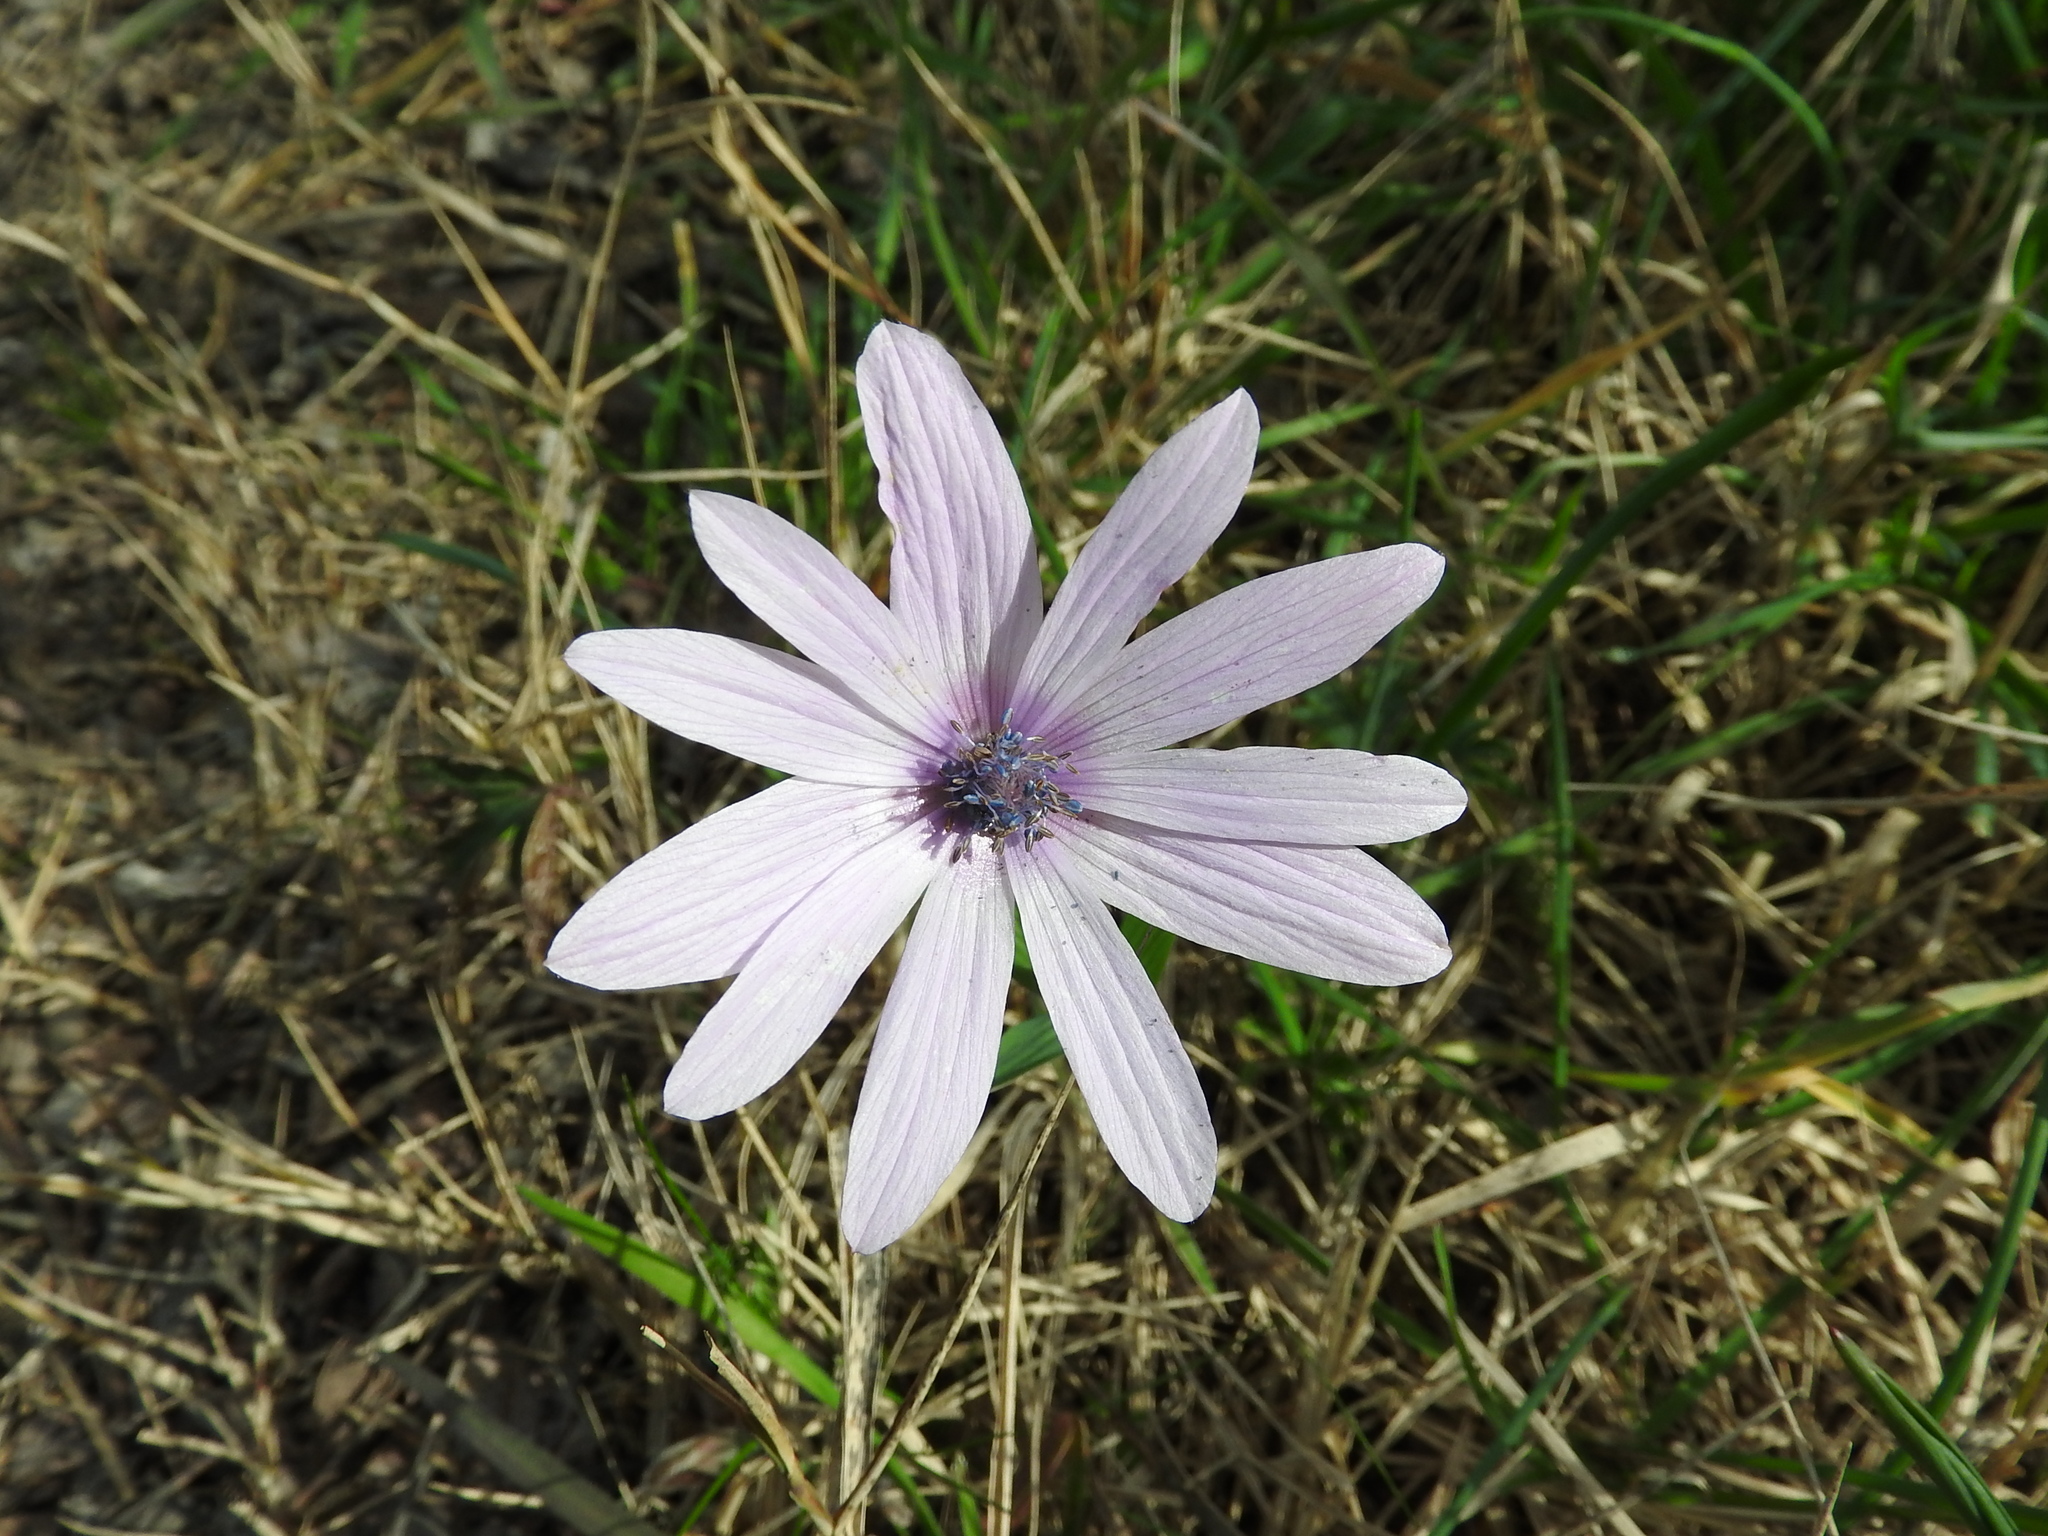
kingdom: Plantae
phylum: Tracheophyta
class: Magnoliopsida
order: Ranunculales
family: Ranunculaceae
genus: Anemone
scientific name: Anemone hortensis
